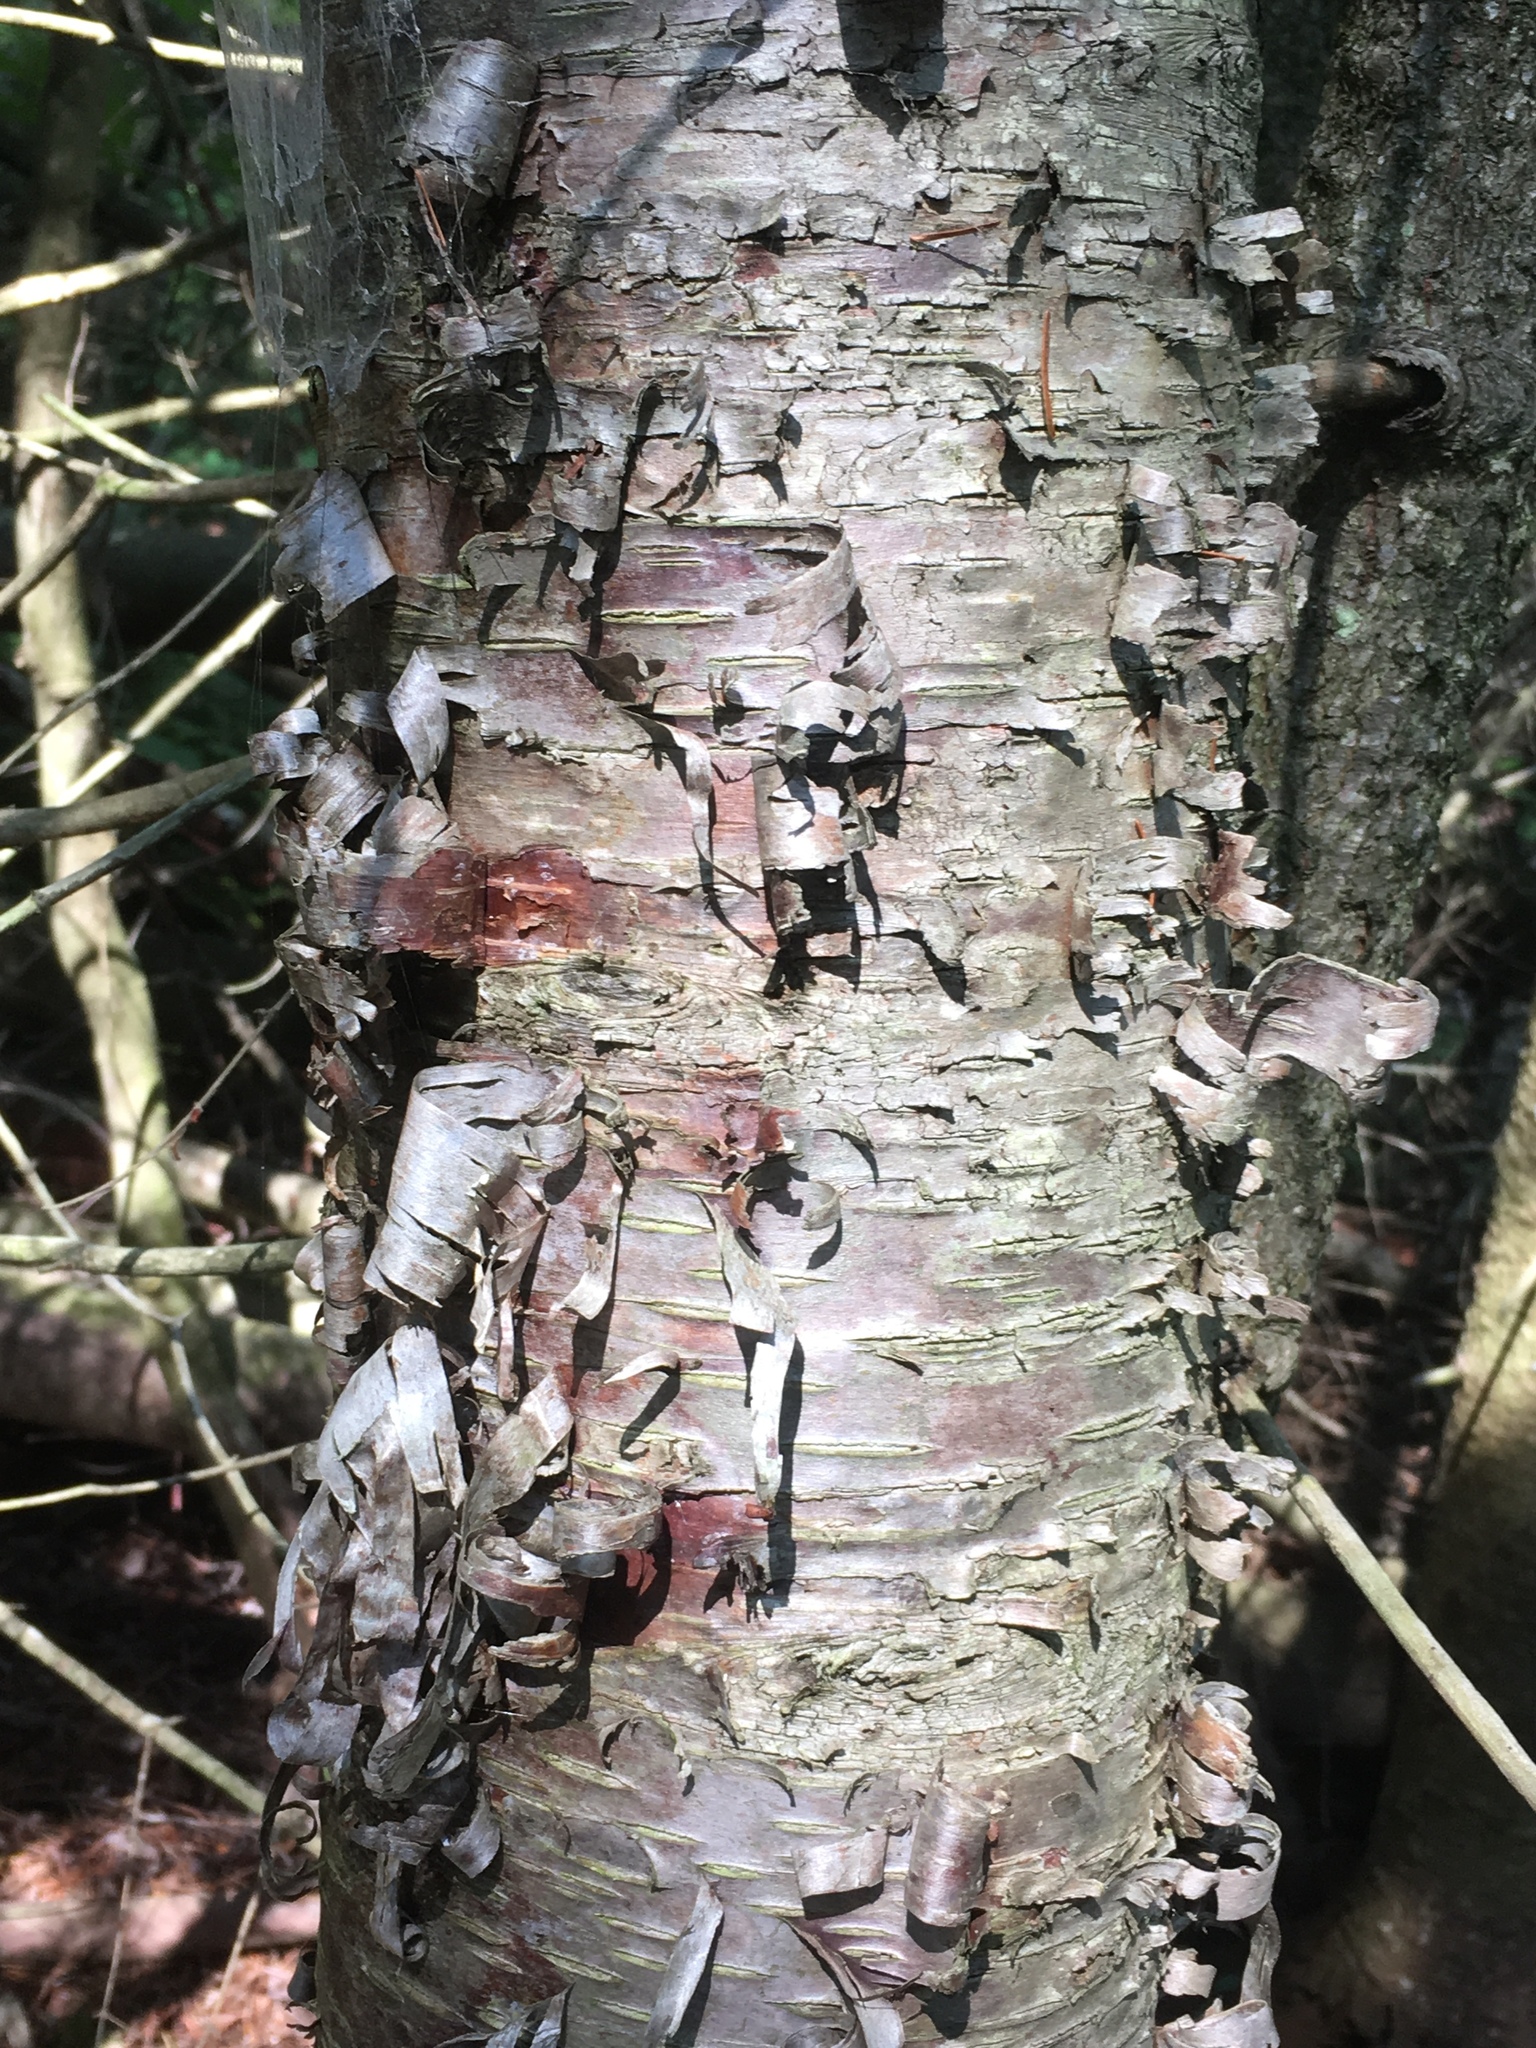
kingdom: Plantae
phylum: Tracheophyta
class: Magnoliopsida
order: Fagales
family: Betulaceae
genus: Betula
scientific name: Betula alleghaniensis
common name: Yellow birch
